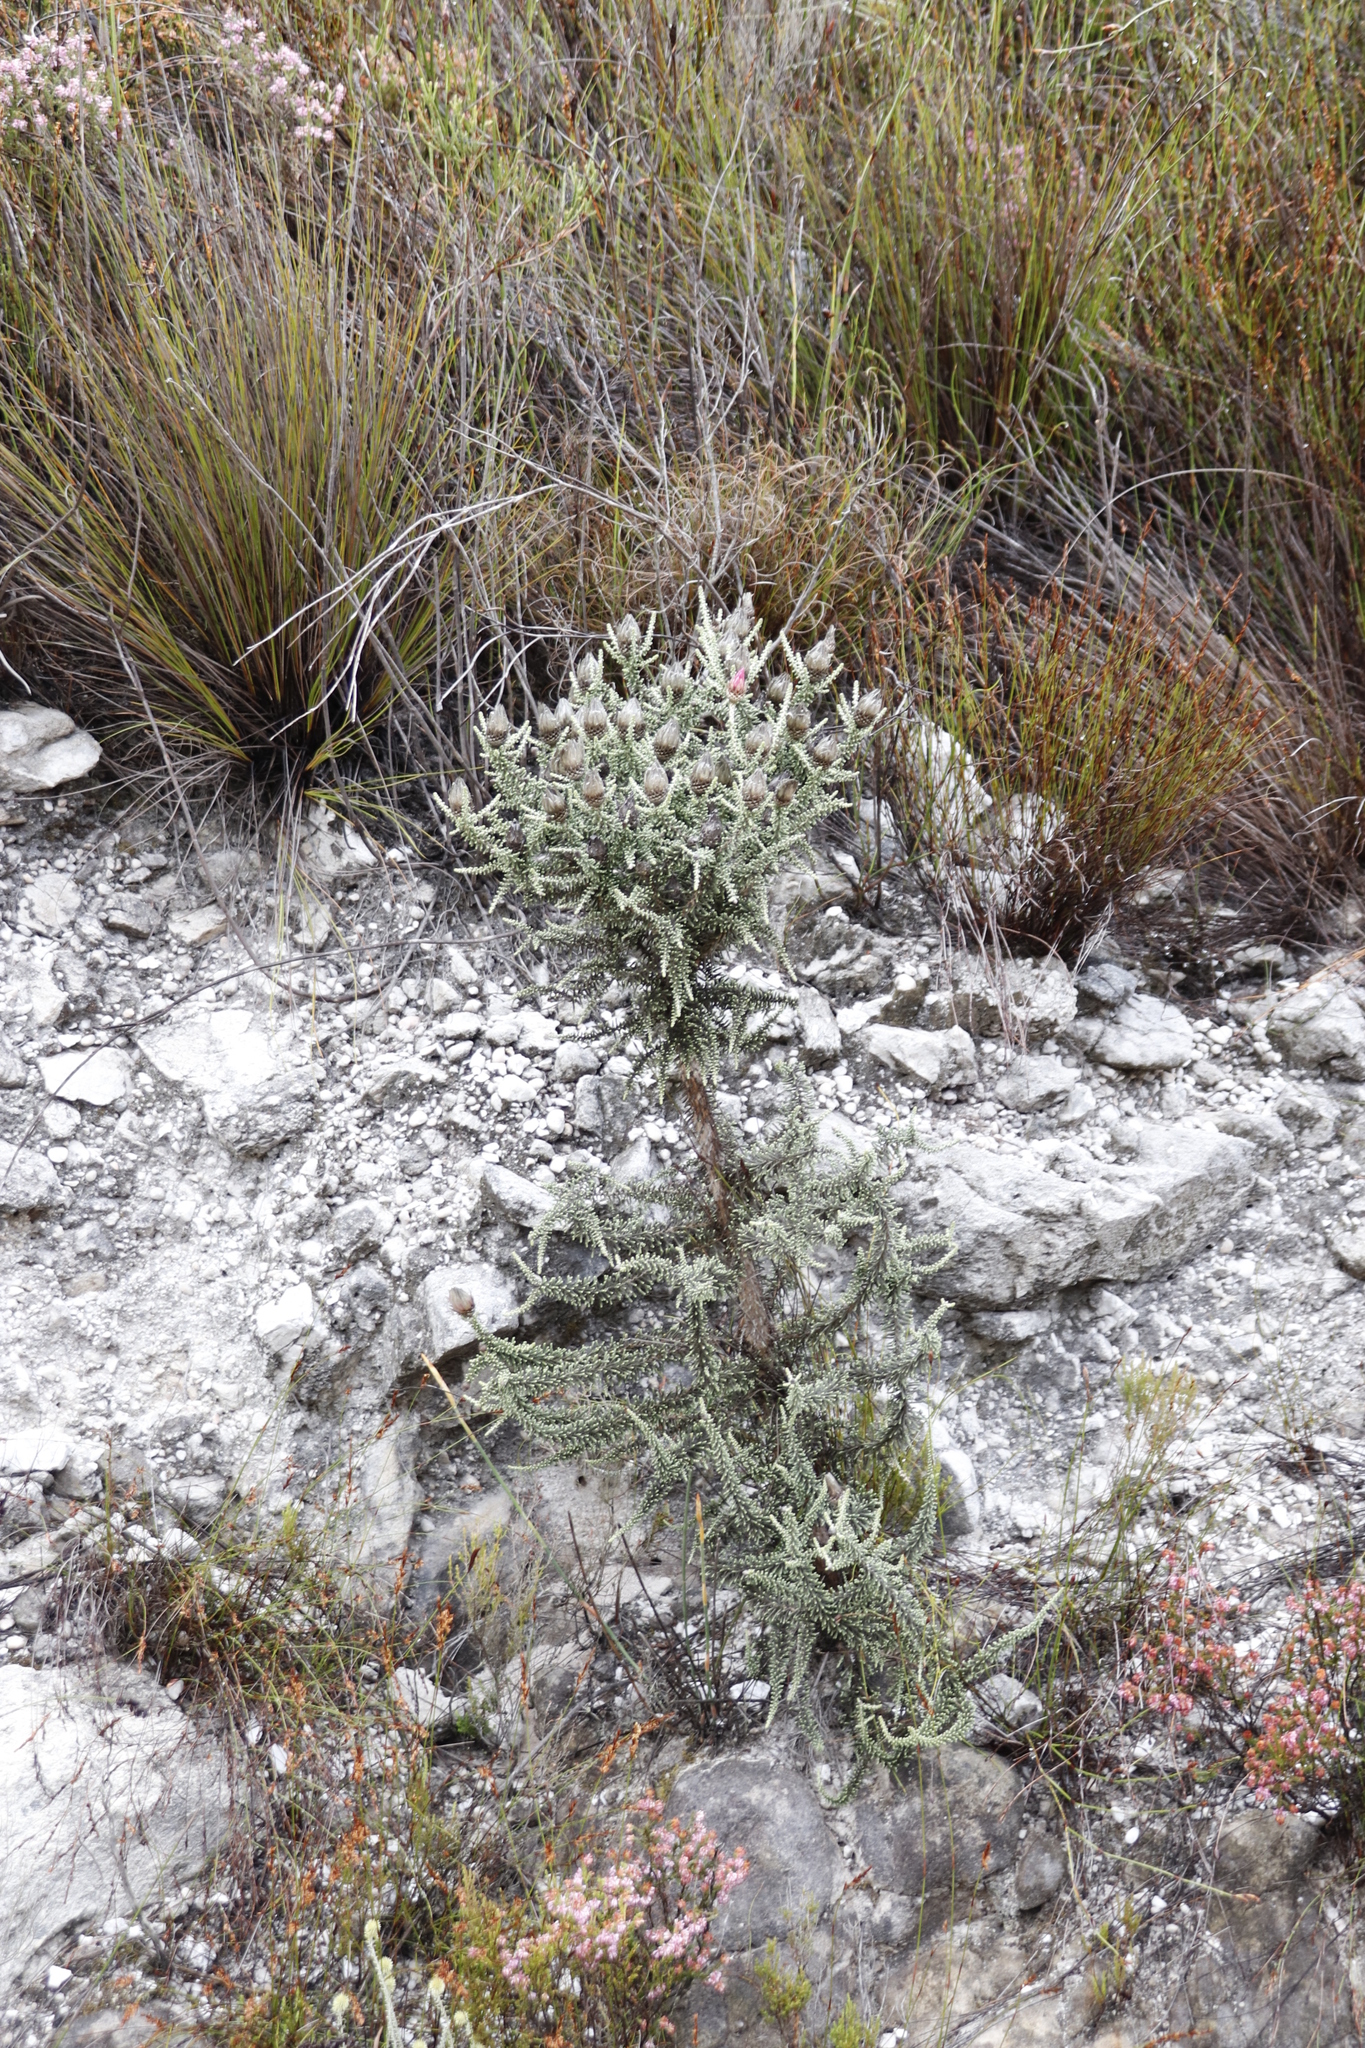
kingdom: Plantae
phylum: Tracheophyta
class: Magnoliopsida
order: Asterales
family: Asteraceae
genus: Phaenocoma
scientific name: Phaenocoma prolifera
